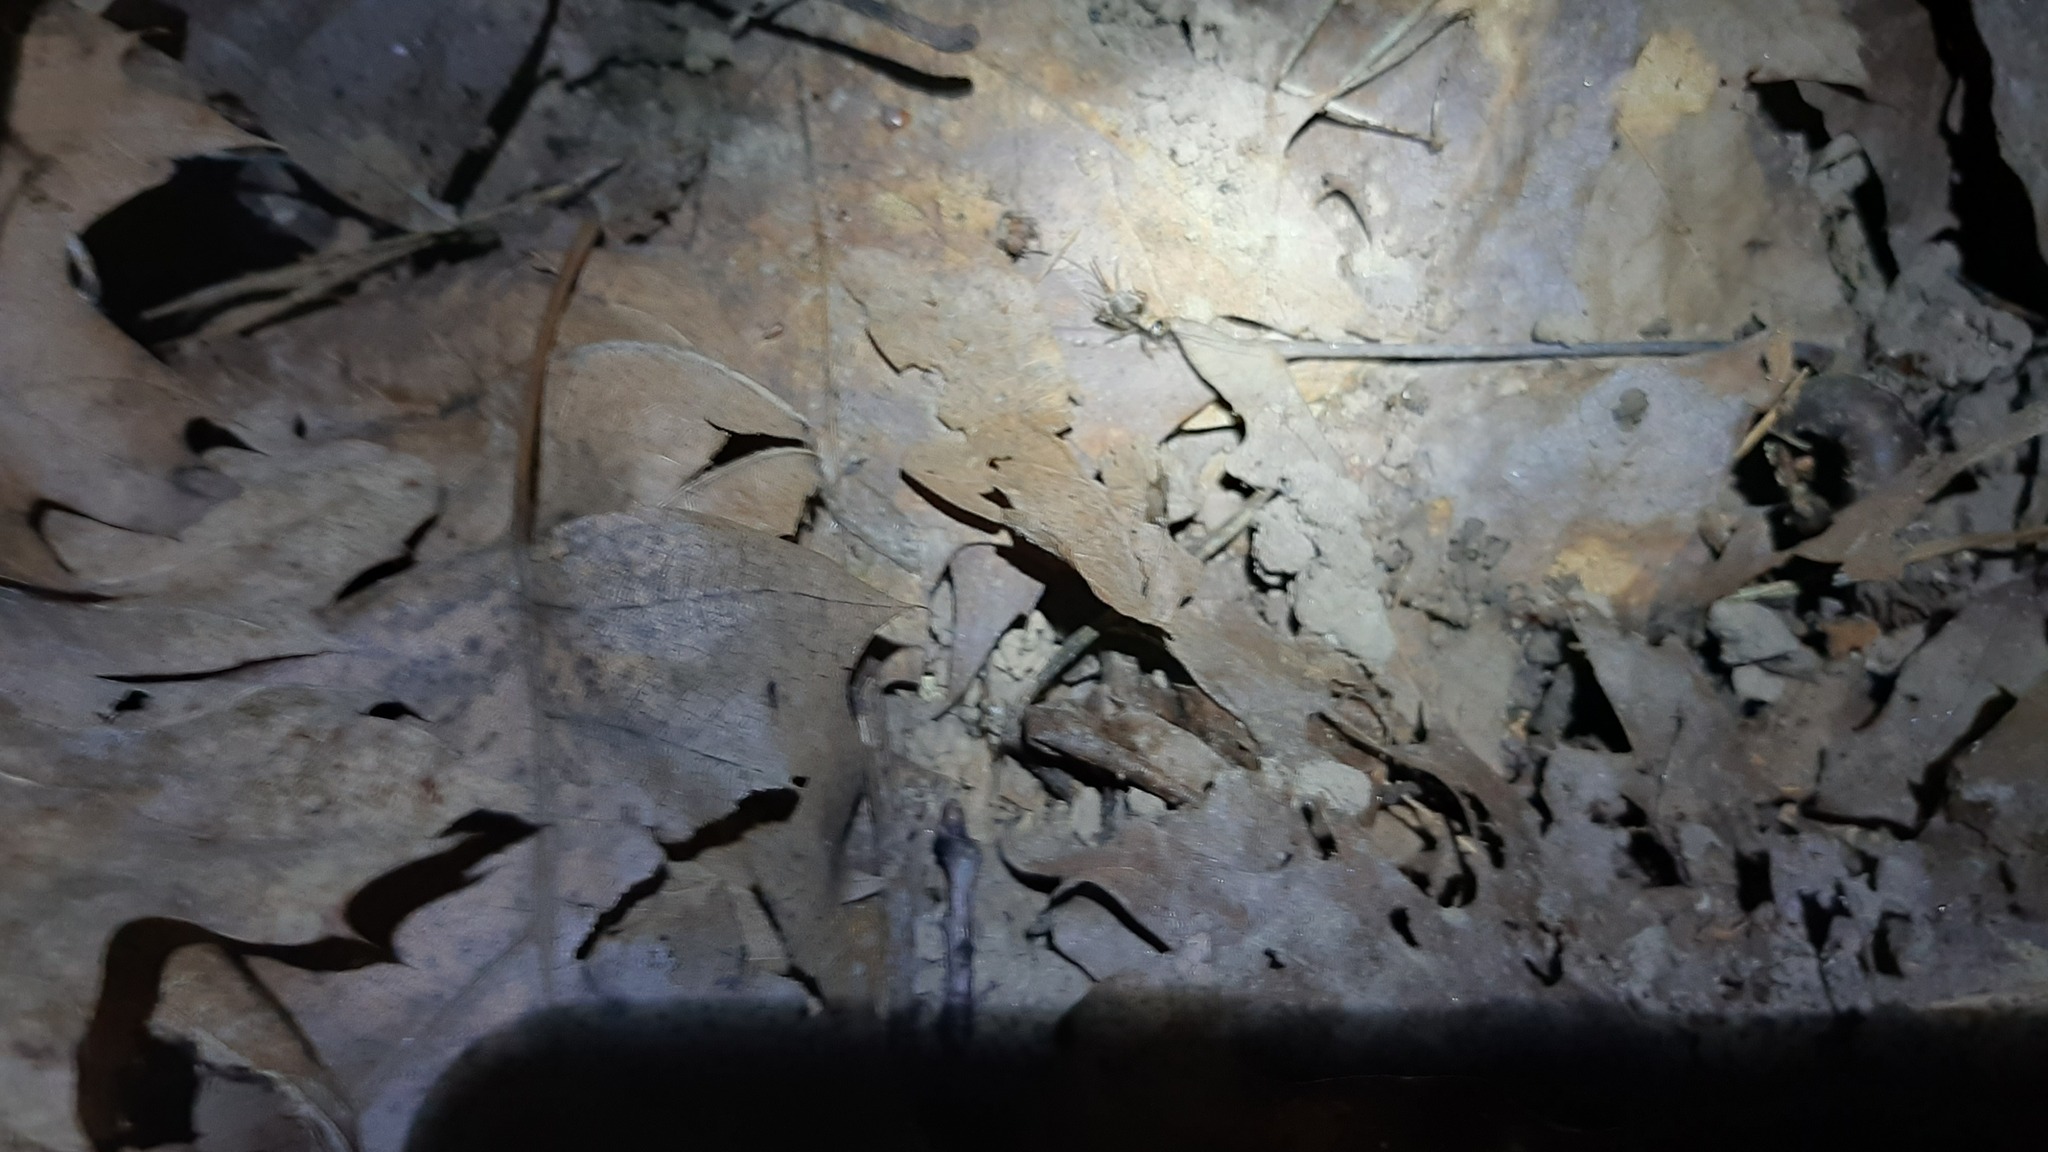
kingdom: Animalia
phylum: Arthropoda
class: Insecta
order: Orthoptera
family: Trigonidiidae
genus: Nemobius
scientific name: Nemobius sylvestris
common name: Wood-cricket
